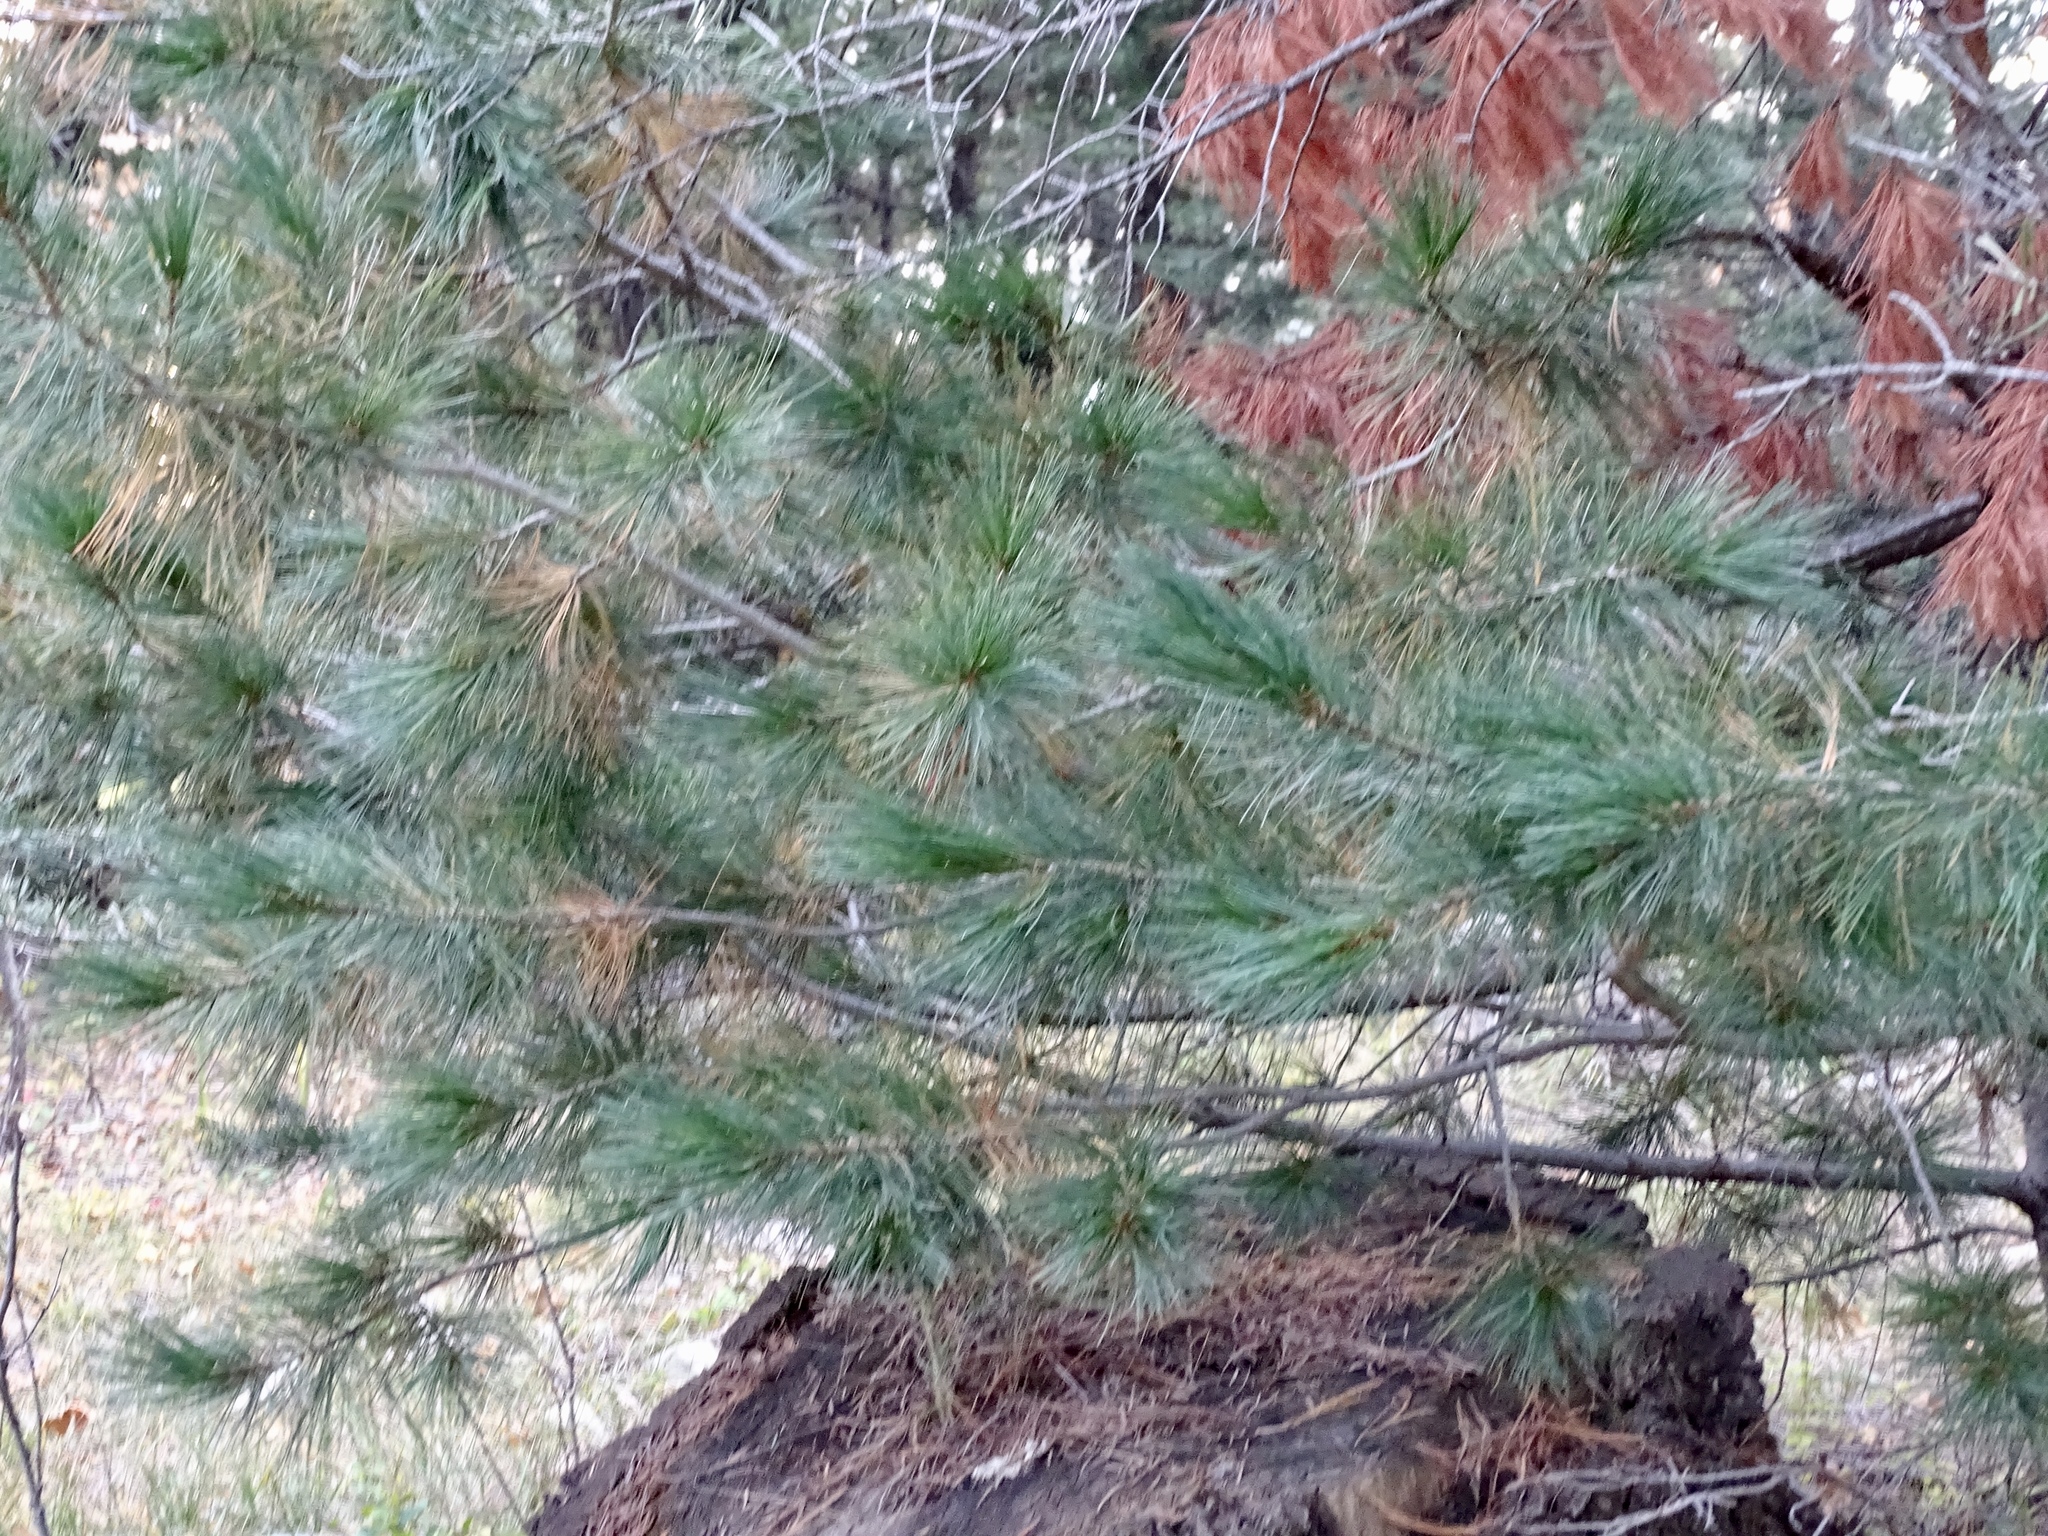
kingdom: Plantae
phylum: Tracheophyta
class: Pinopsida
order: Pinales
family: Pinaceae
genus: Pinus
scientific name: Pinus strobiformis
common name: Southwestern white pine
